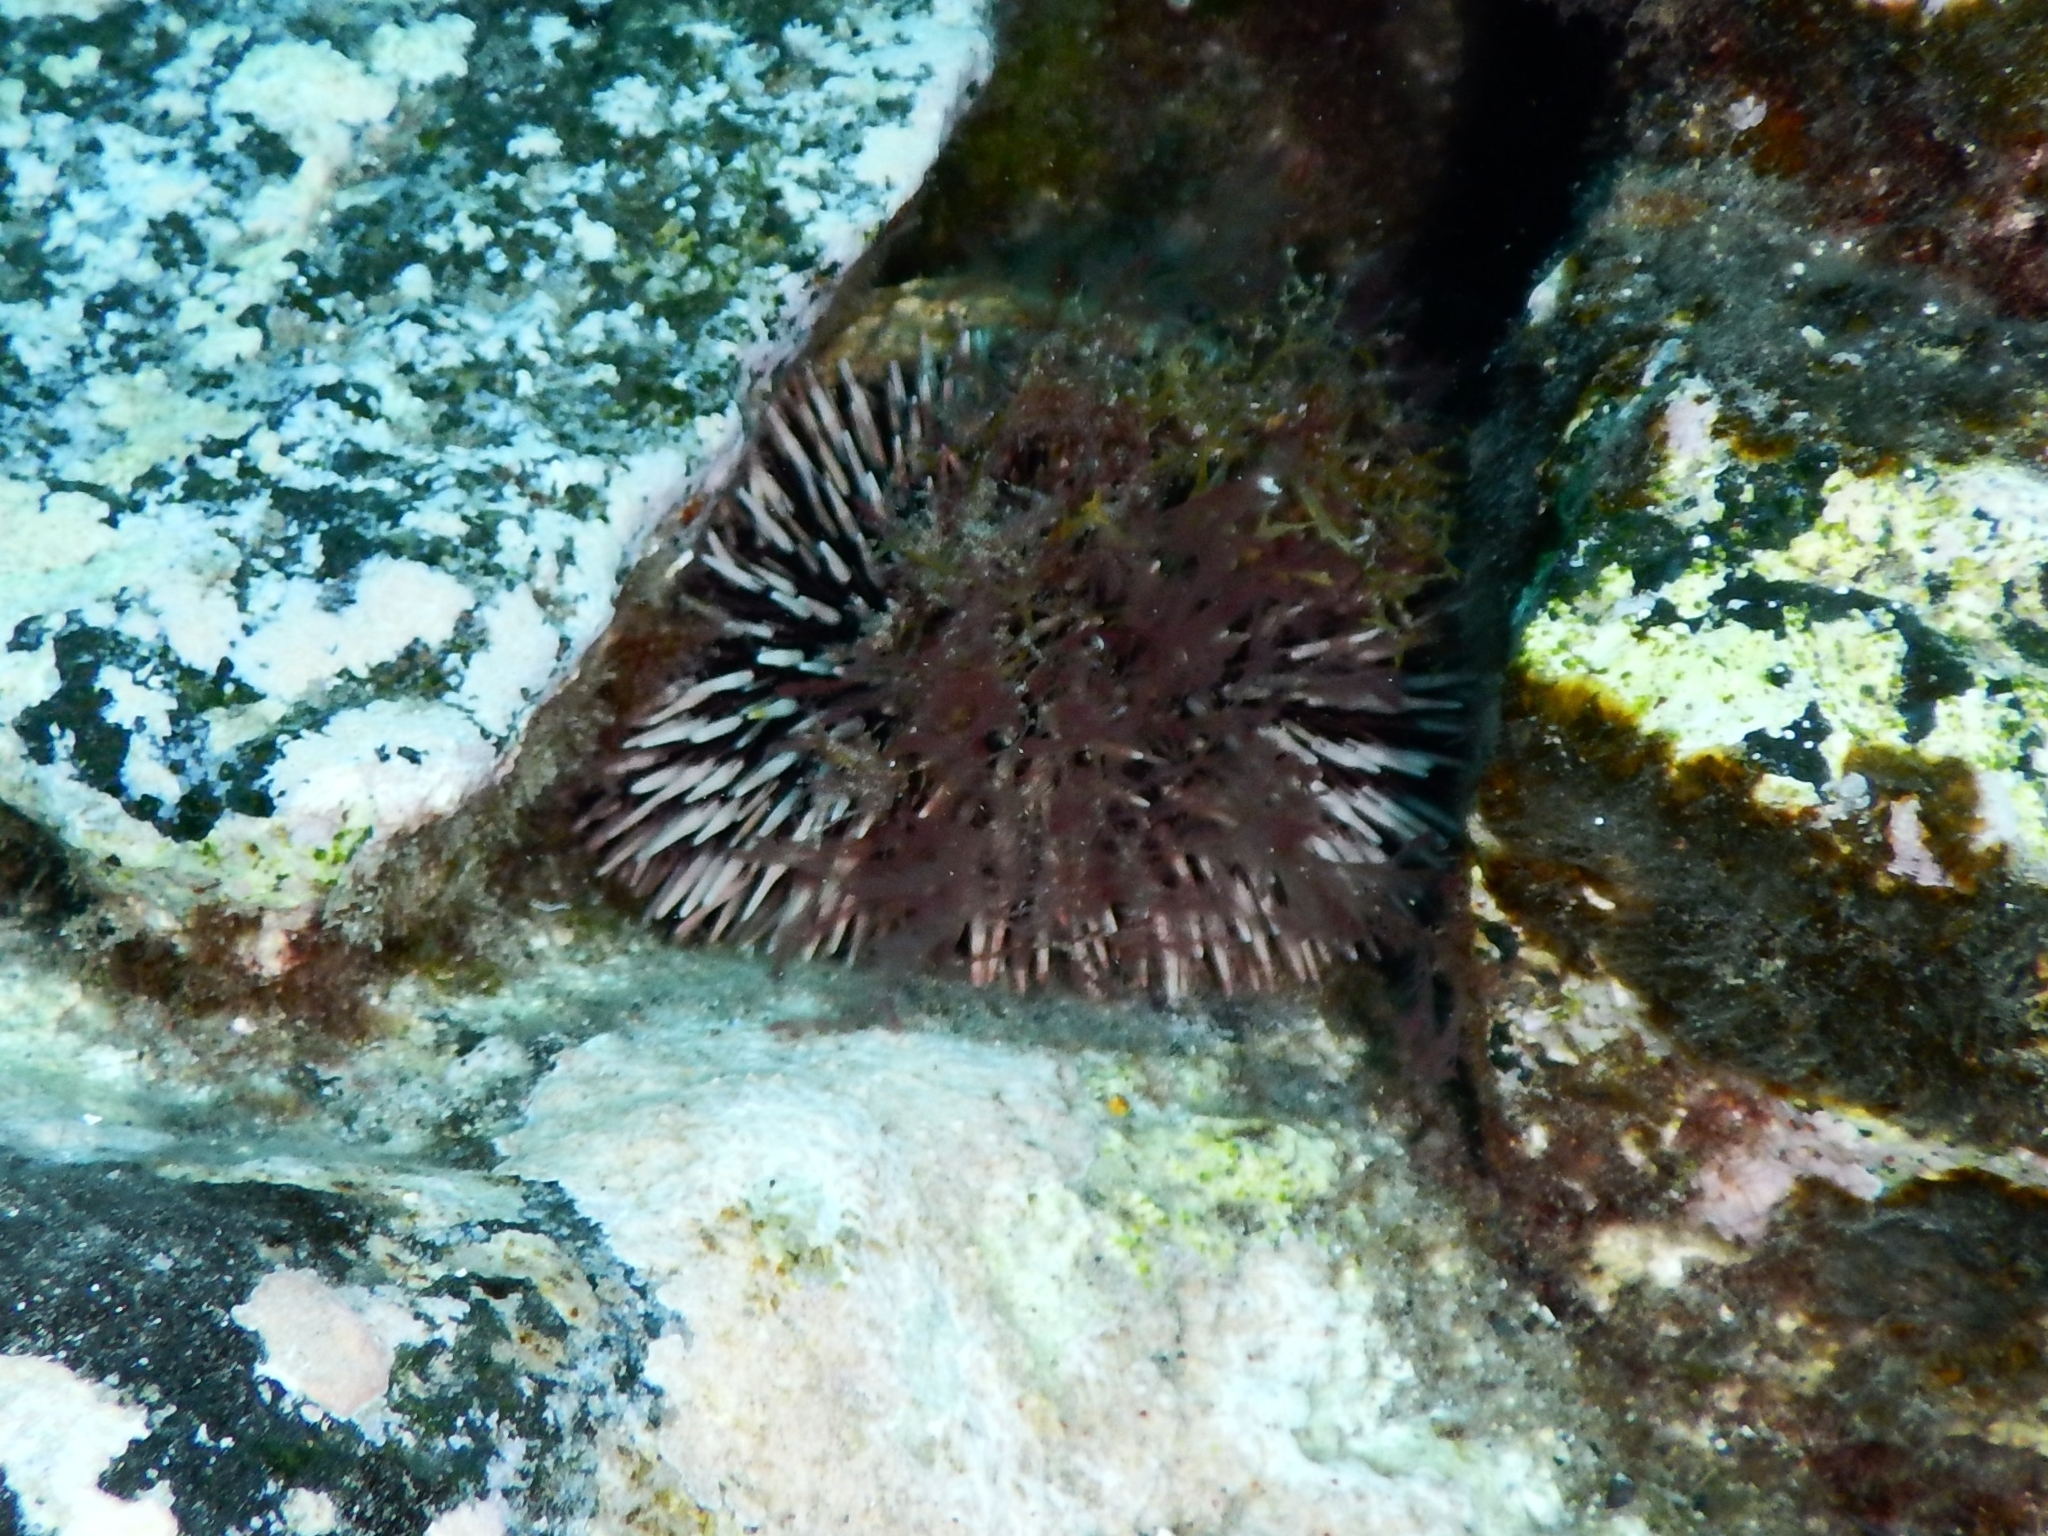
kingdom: Animalia
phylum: Echinodermata
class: Echinoidea
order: Camarodonta
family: Toxopneustidae
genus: Sphaerechinus
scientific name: Sphaerechinus granularis
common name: Violet sea urchin
